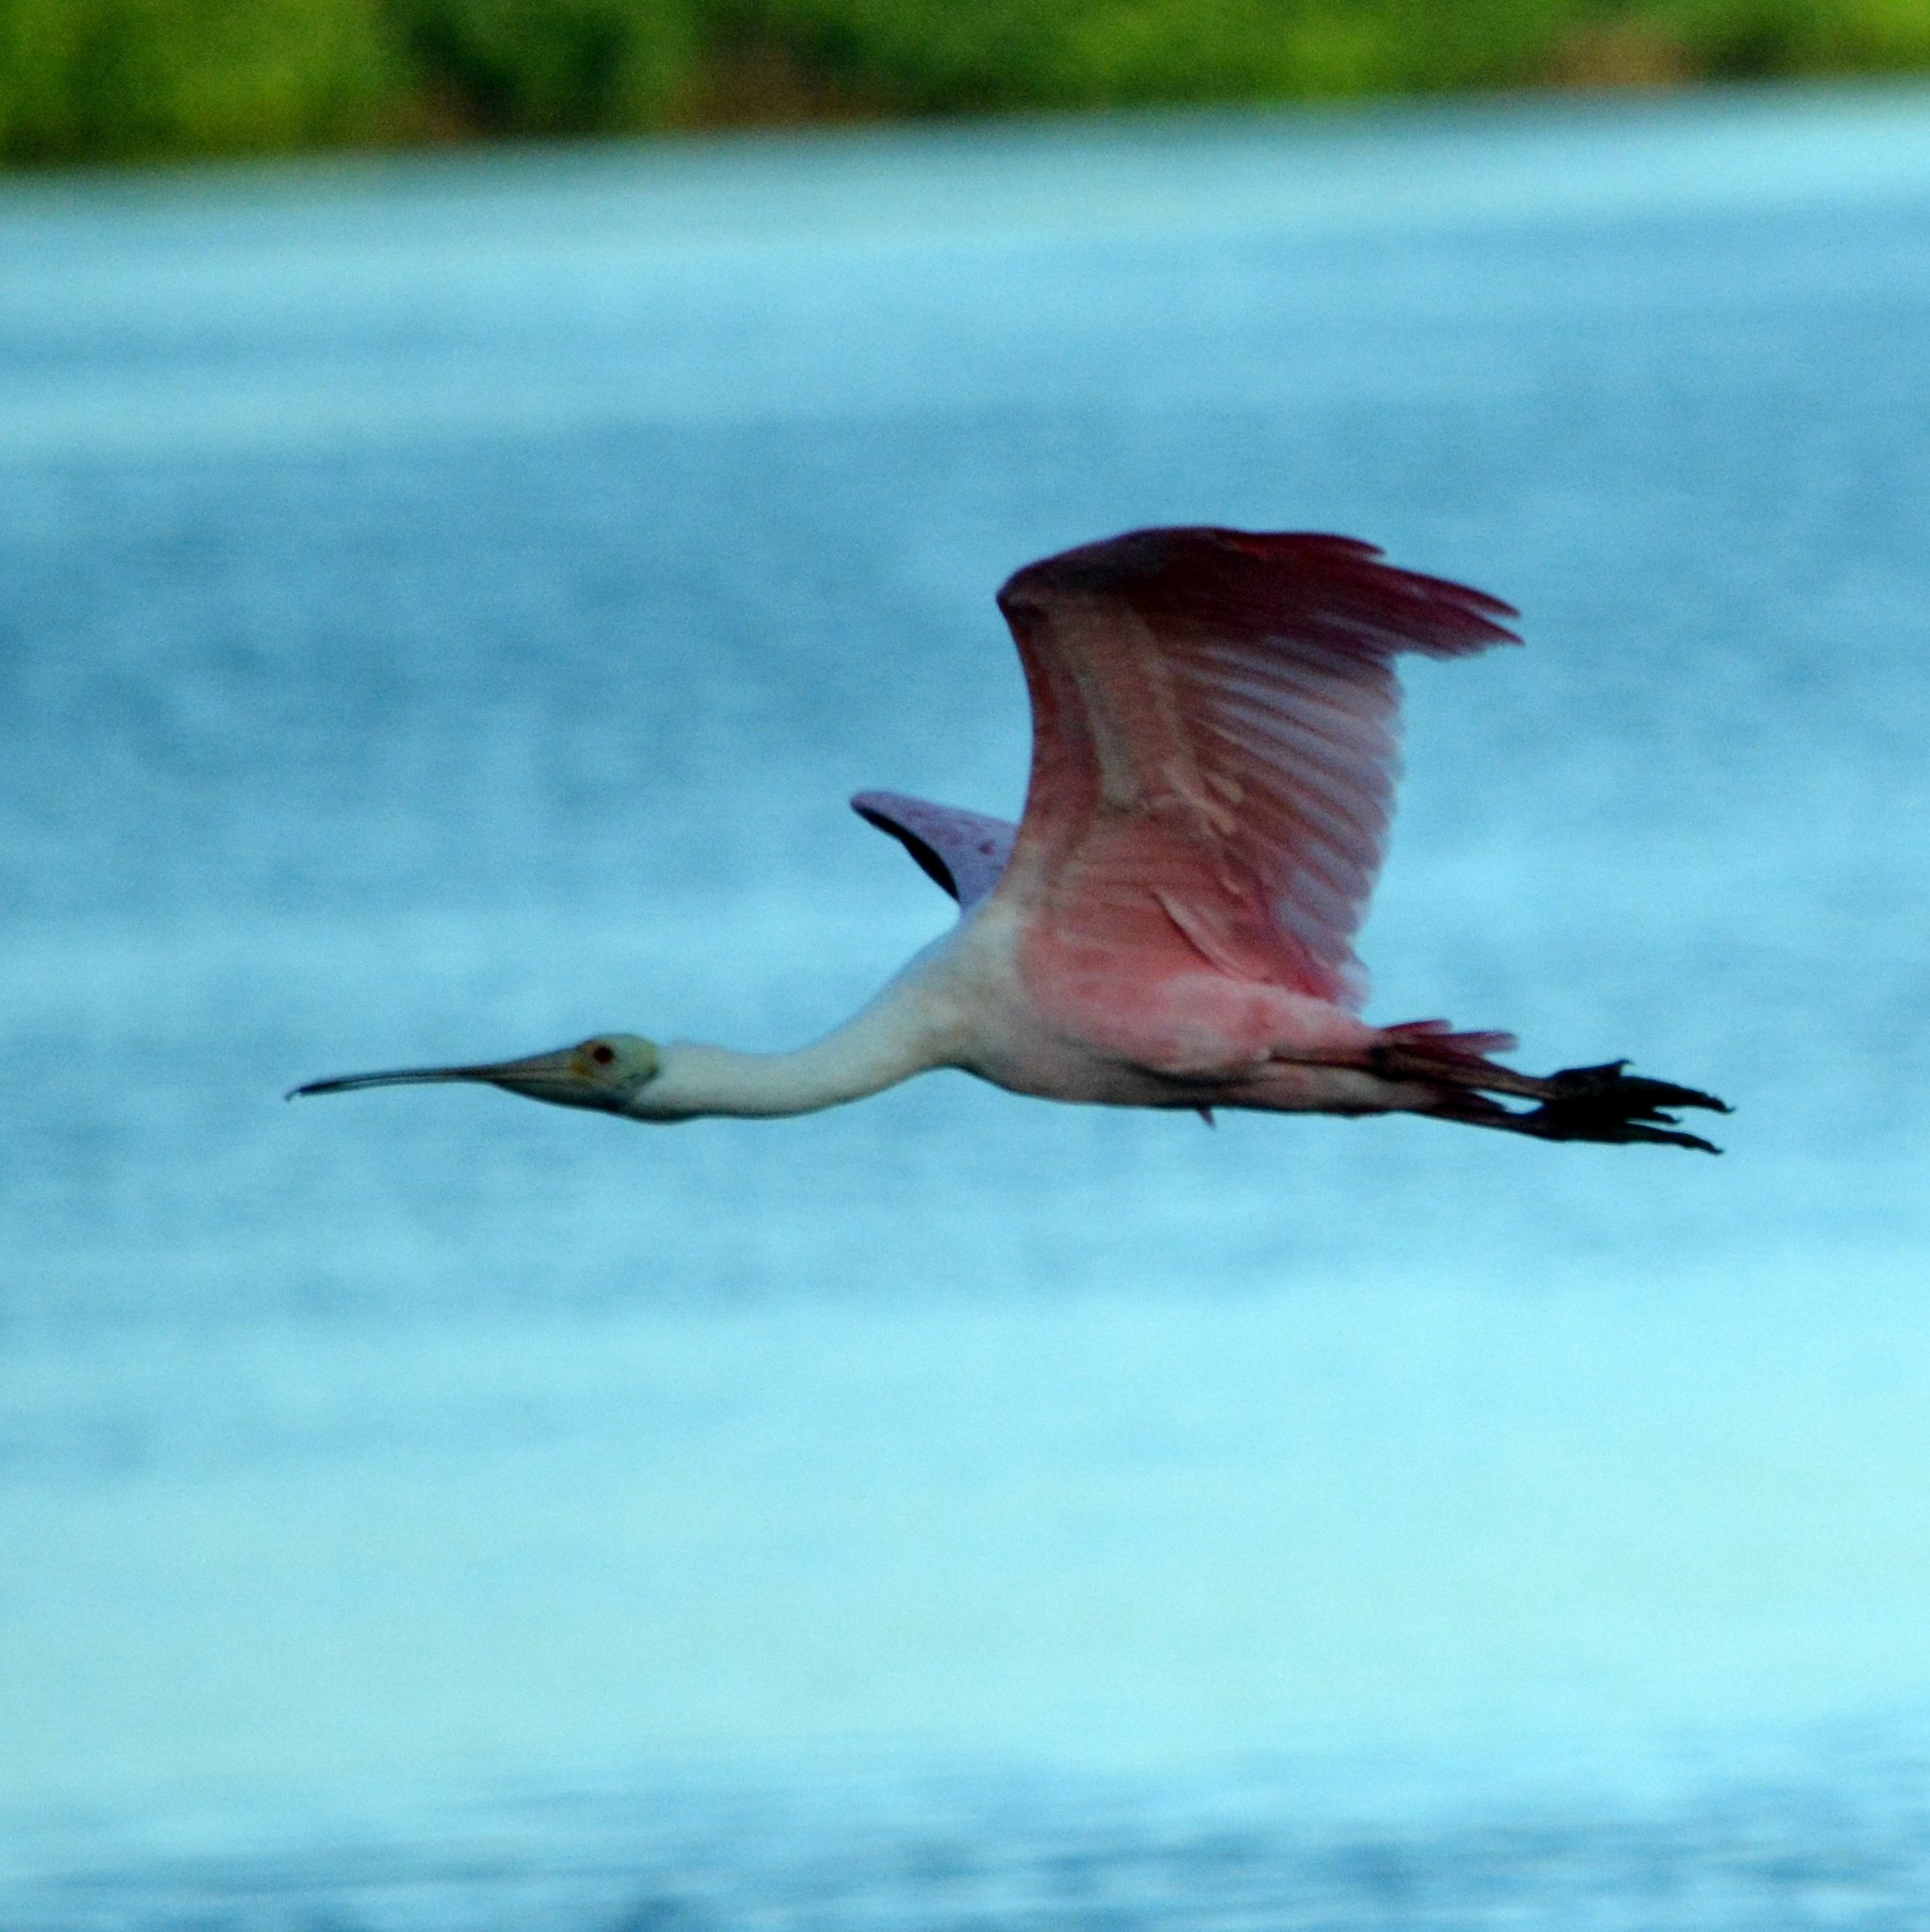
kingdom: Animalia
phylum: Chordata
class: Aves
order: Pelecaniformes
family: Threskiornithidae
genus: Platalea
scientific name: Platalea ajaja
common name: Roseate spoonbill
